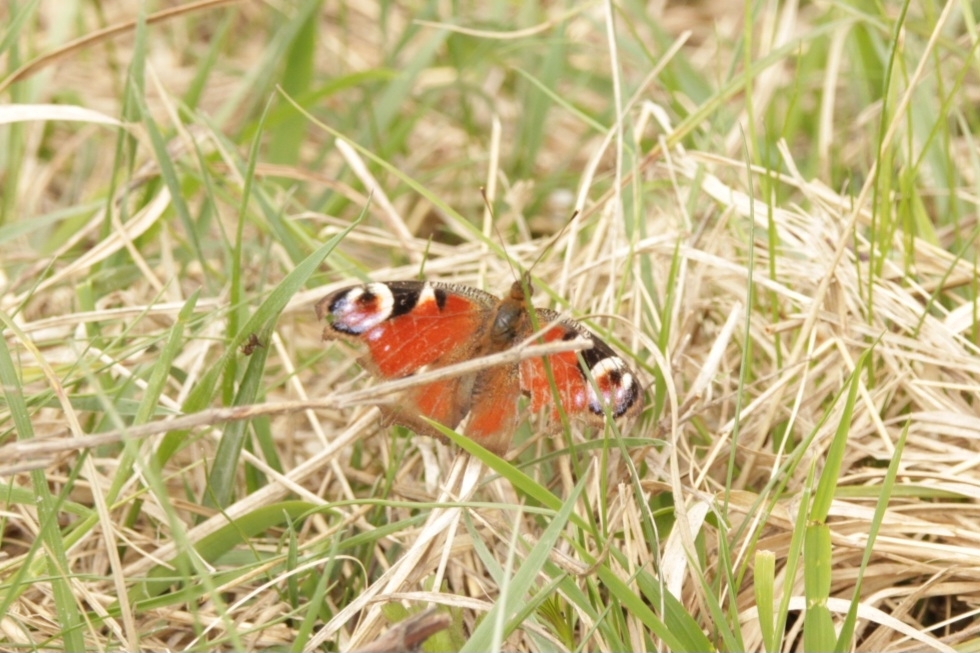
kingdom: Animalia
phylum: Arthropoda
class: Insecta
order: Lepidoptera
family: Nymphalidae
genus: Aglais
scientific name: Aglais io
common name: Peacock
